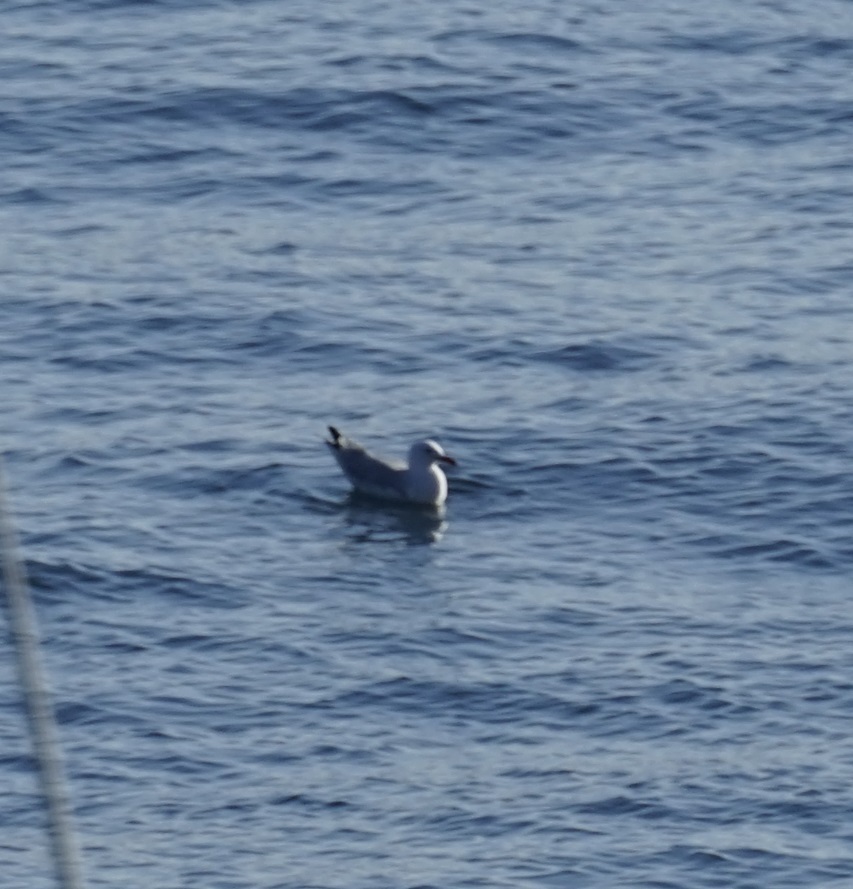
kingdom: Animalia
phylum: Chordata
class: Aves
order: Charadriiformes
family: Laridae
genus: Chroicocephalus
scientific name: Chroicocephalus novaehollandiae
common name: Silver gull
